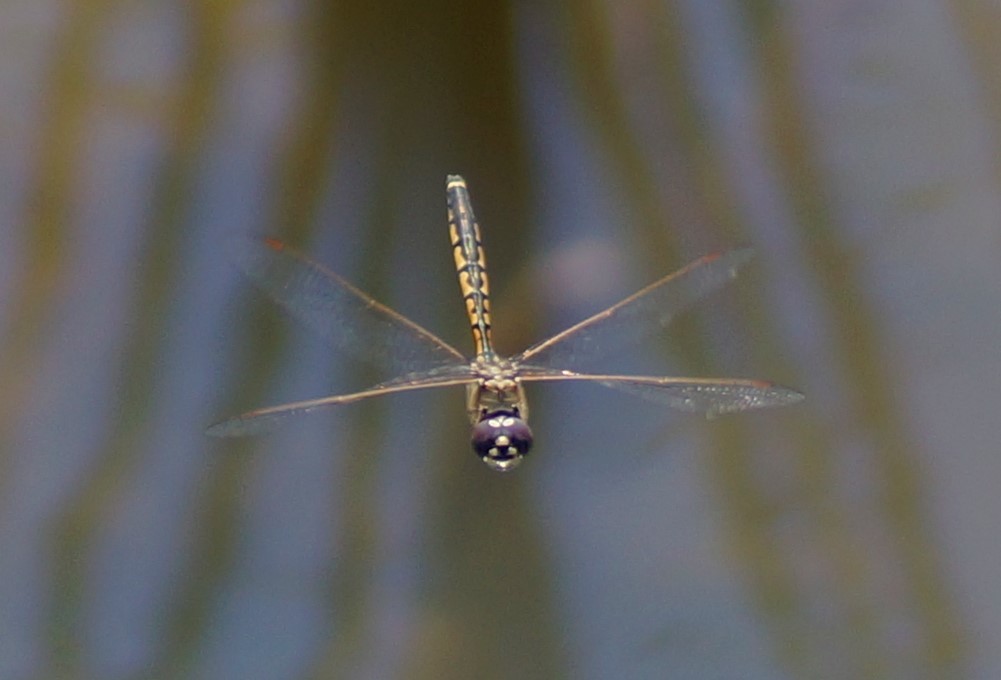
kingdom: Animalia
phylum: Arthropoda
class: Insecta
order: Odonata
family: Corduliidae
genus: Hemicordulia
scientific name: Hemicordulia tau
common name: Tau emerald
